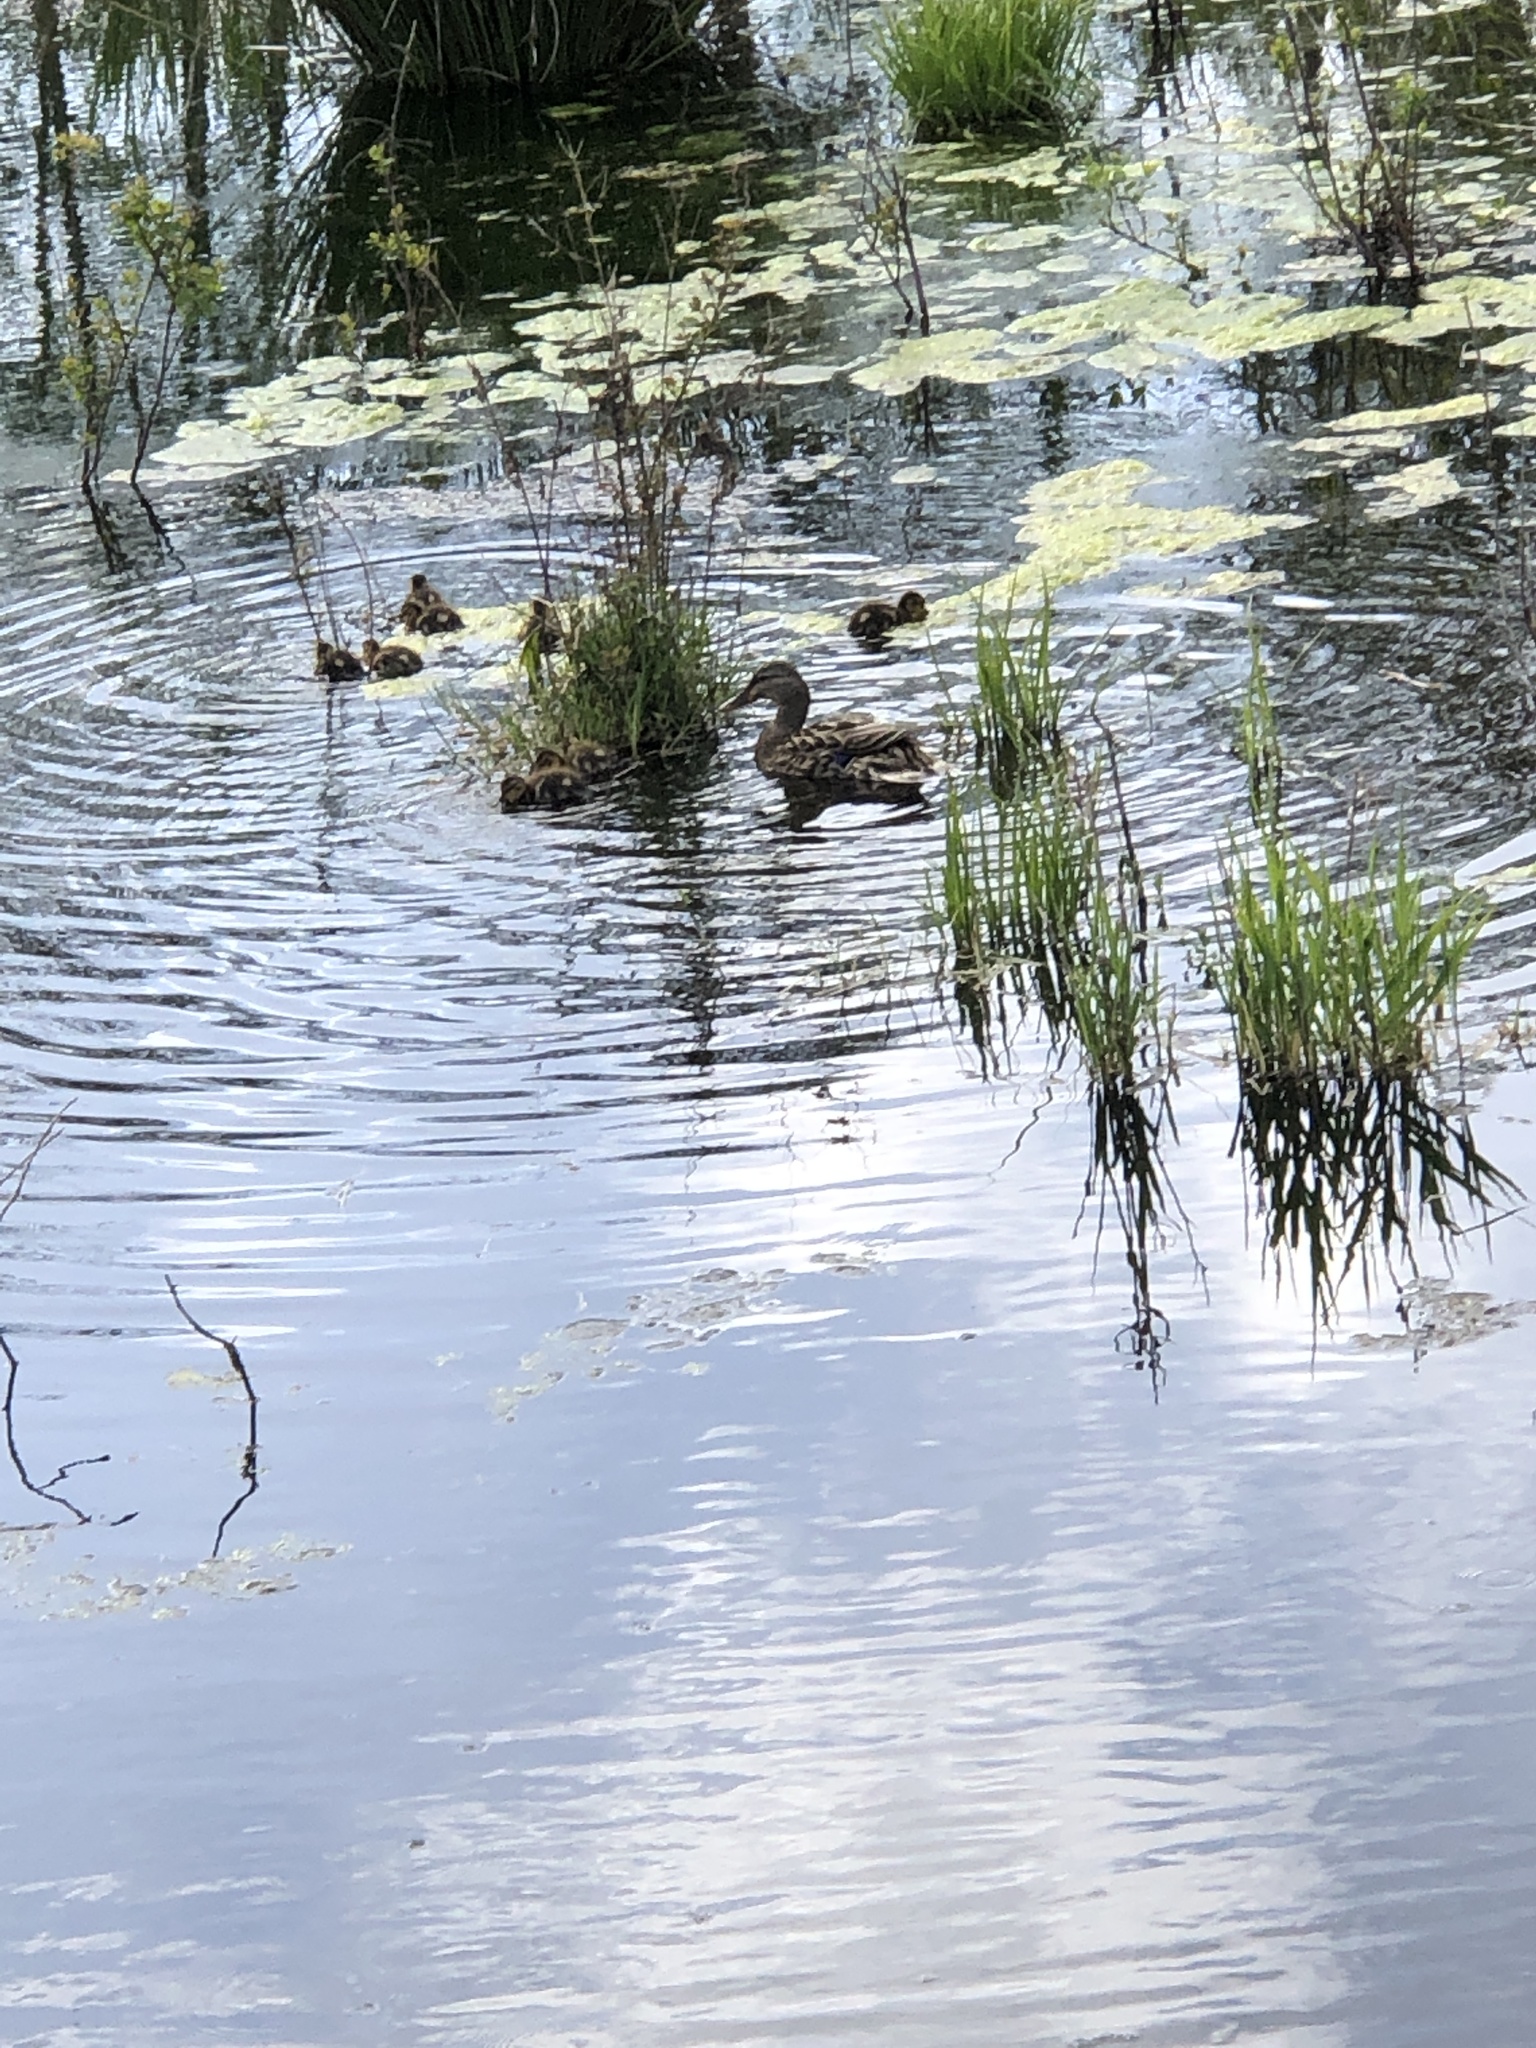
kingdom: Animalia
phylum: Chordata
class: Aves
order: Anseriformes
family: Anatidae
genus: Anas
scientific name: Anas platyrhynchos
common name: Mallard
